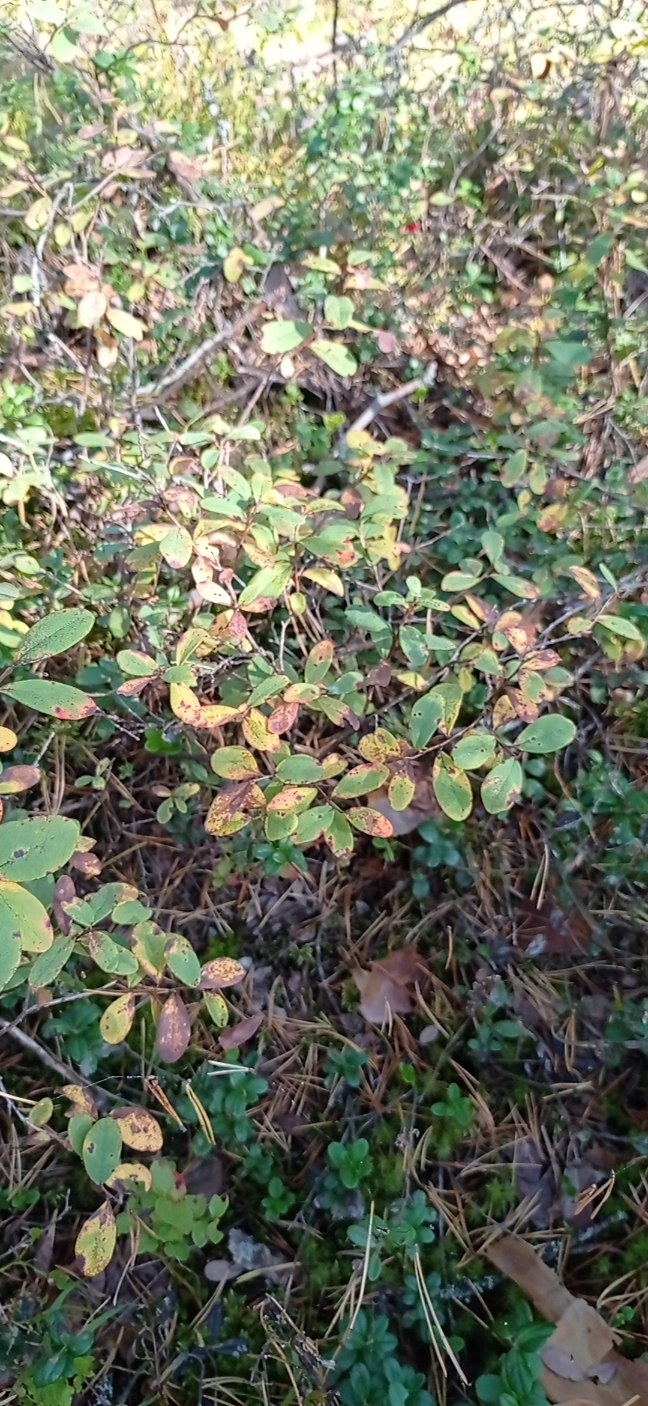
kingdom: Plantae
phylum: Tracheophyta
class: Magnoliopsida
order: Ericales
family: Ericaceae
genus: Vaccinium
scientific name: Vaccinium uliginosum
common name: Bog bilberry
